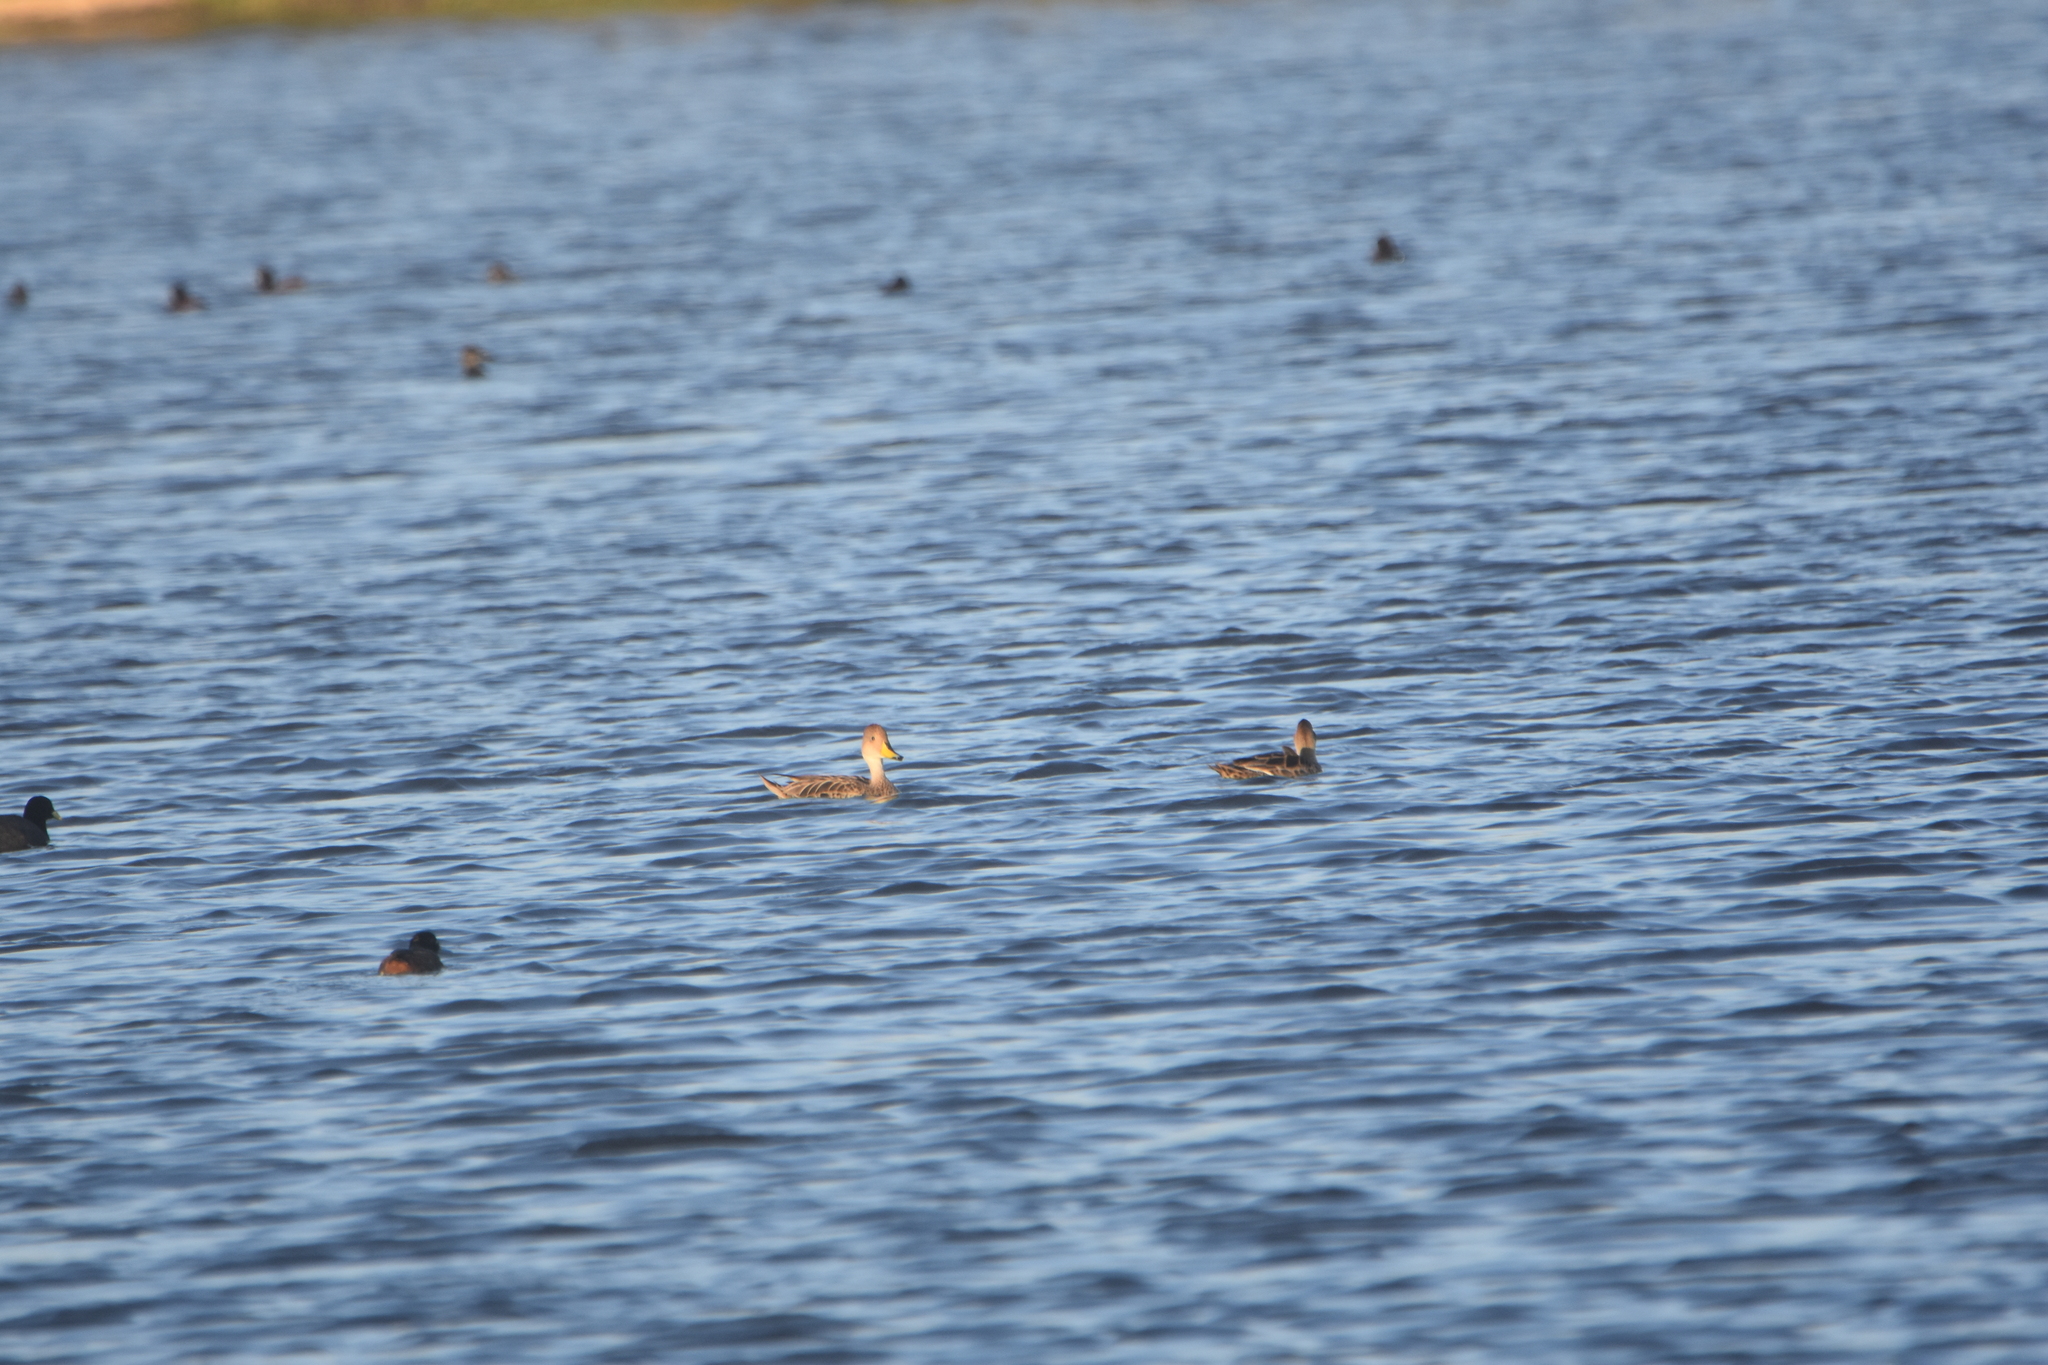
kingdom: Animalia
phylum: Chordata
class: Aves
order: Anseriformes
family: Anatidae
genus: Anas
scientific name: Anas georgica
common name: Yellow-billed pintail
